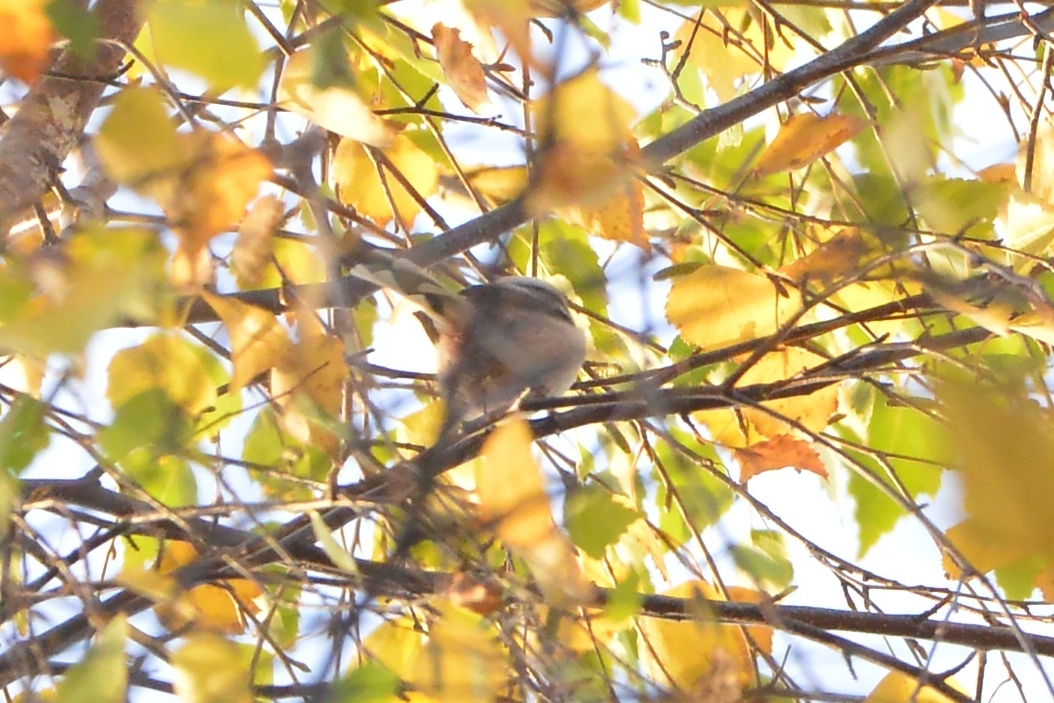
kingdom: Animalia
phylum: Chordata
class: Aves
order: Passeriformes
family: Aegithalidae
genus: Aegithalos
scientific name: Aegithalos caudatus
